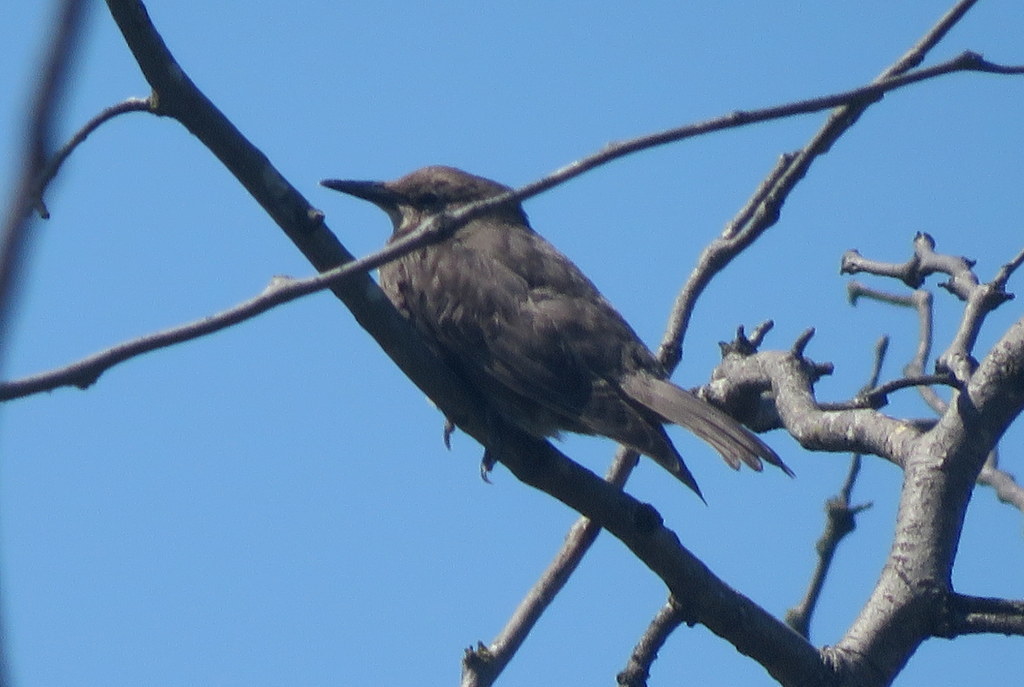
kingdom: Animalia
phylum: Chordata
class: Aves
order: Passeriformes
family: Tyrannidae
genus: Tyrannus
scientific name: Tyrannus melancholicus
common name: Tropical kingbird
